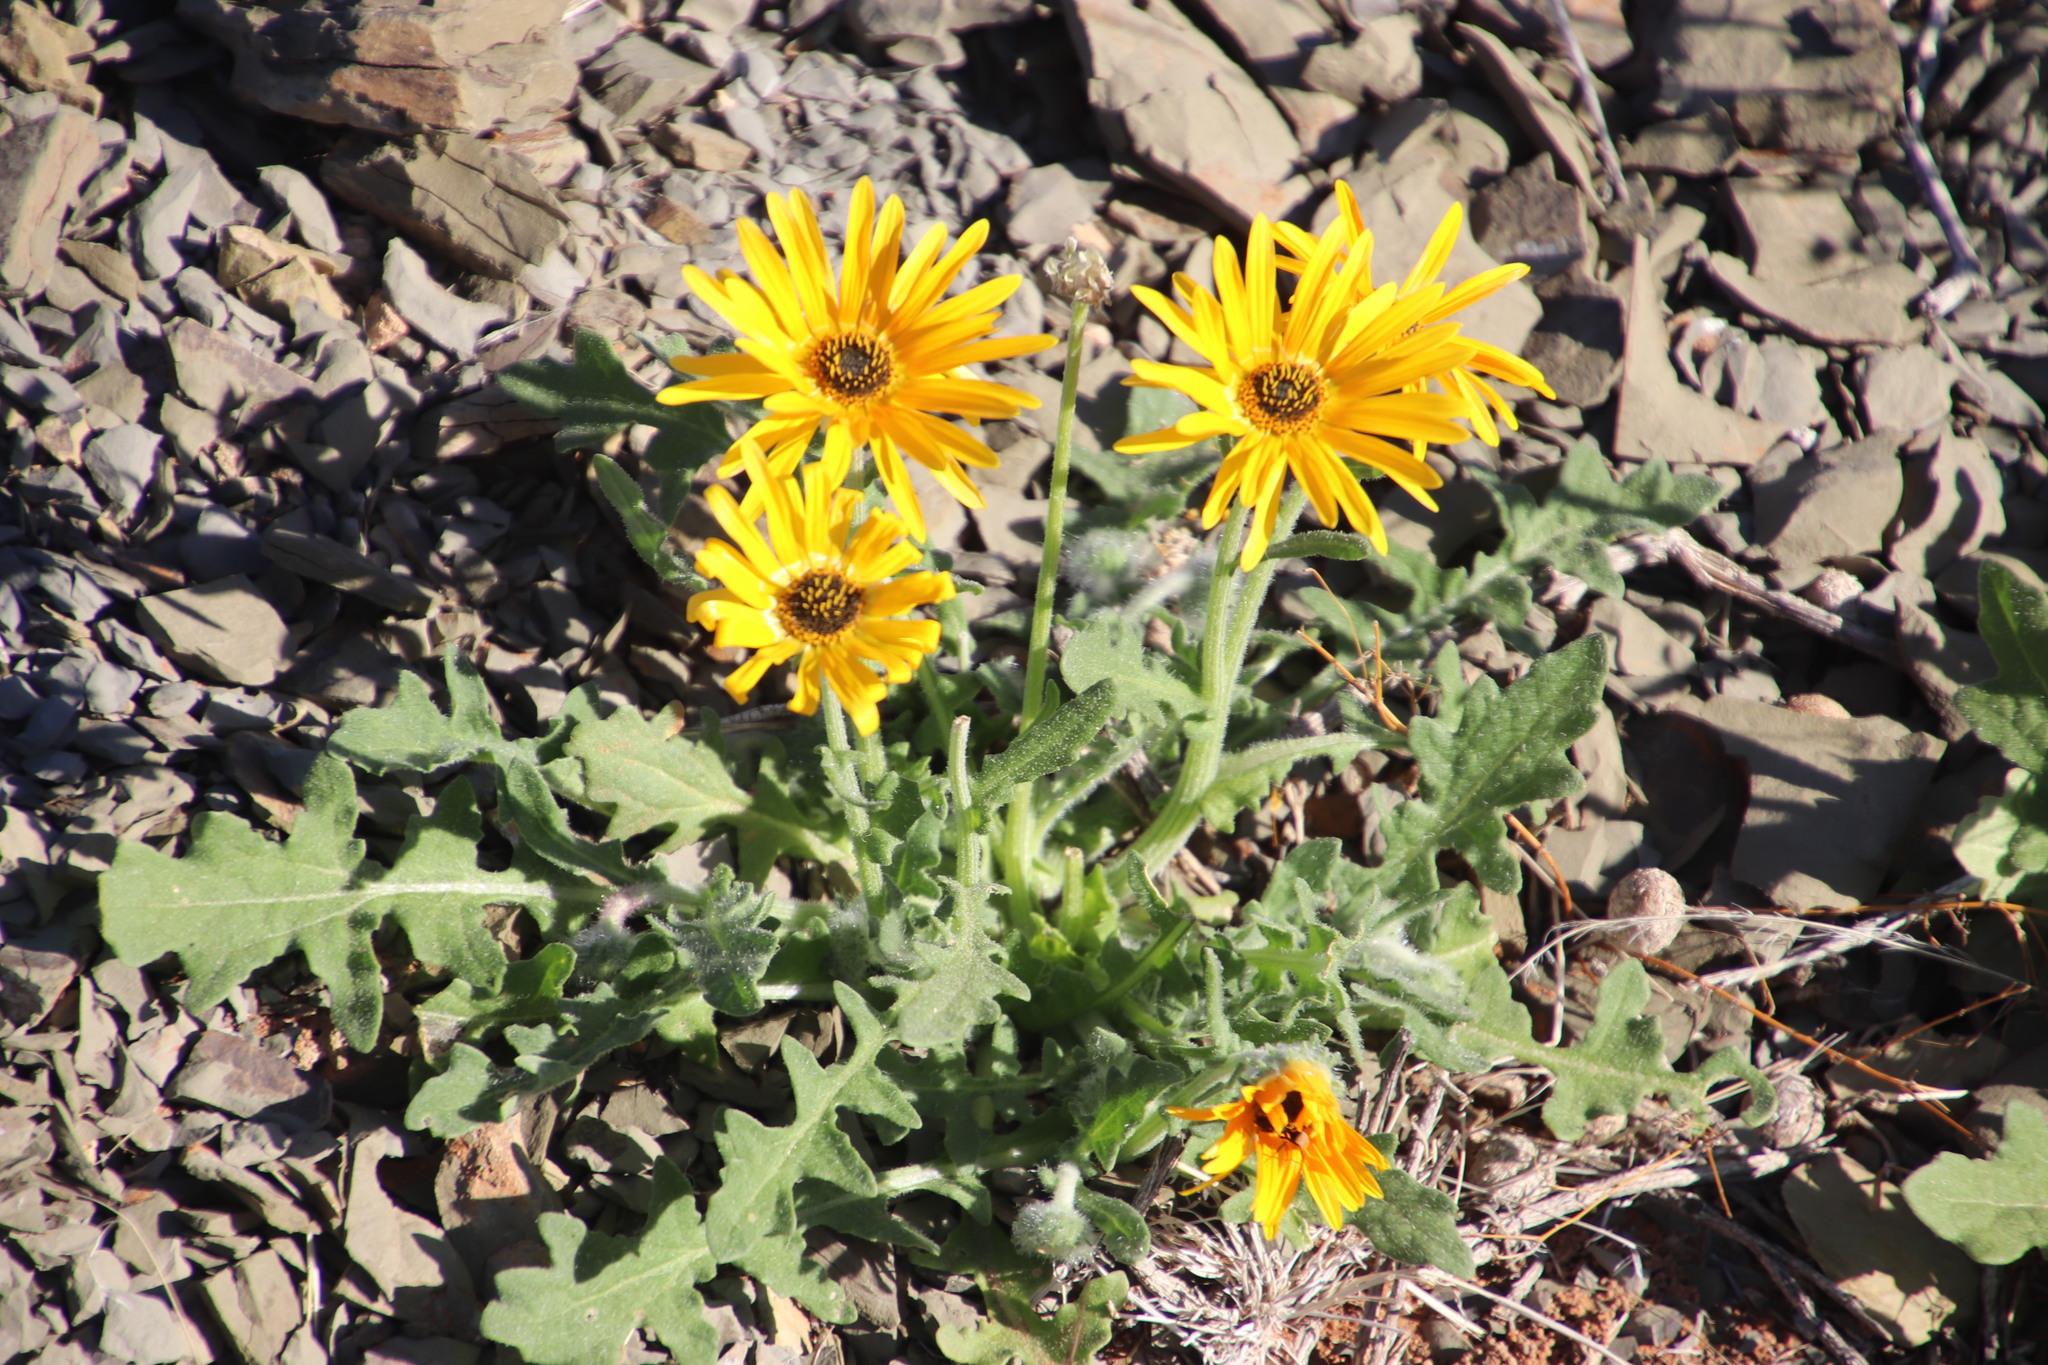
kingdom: Plantae
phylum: Tracheophyta
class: Magnoliopsida
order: Asterales
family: Asteraceae
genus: Arctotis
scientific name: Arctotis hirsuta
